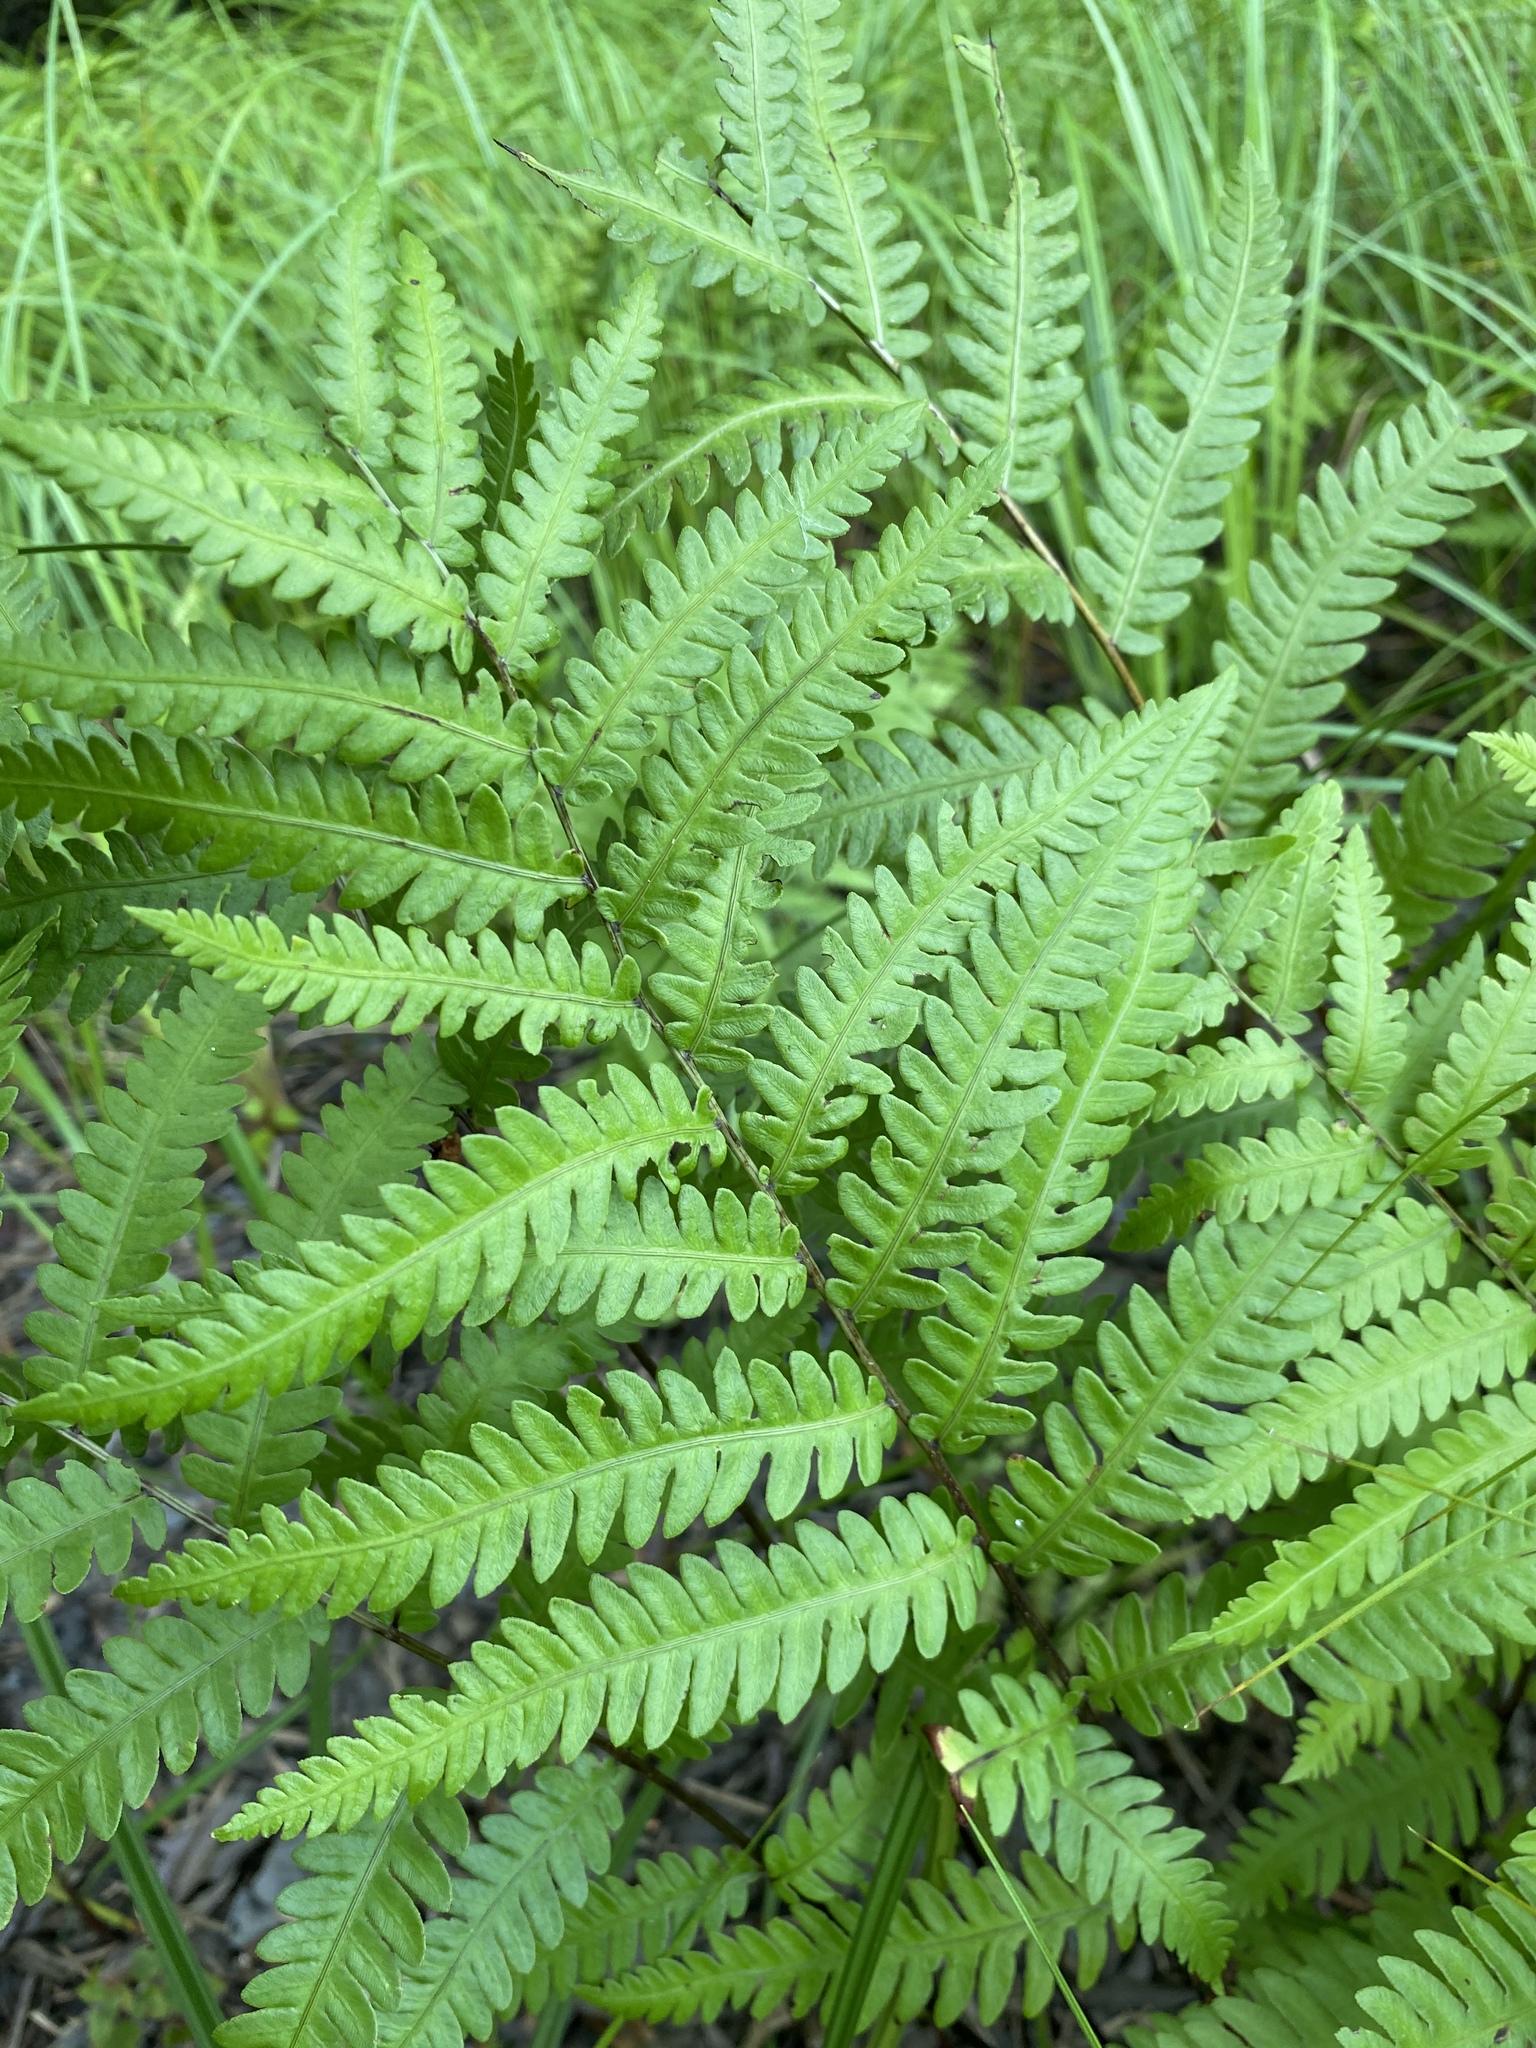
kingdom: Plantae
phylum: Tracheophyta
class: Polypodiopsida
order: Polypodiales
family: Blechnaceae
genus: Anchistea
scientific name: Anchistea virginica
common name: Virginia chain fern
